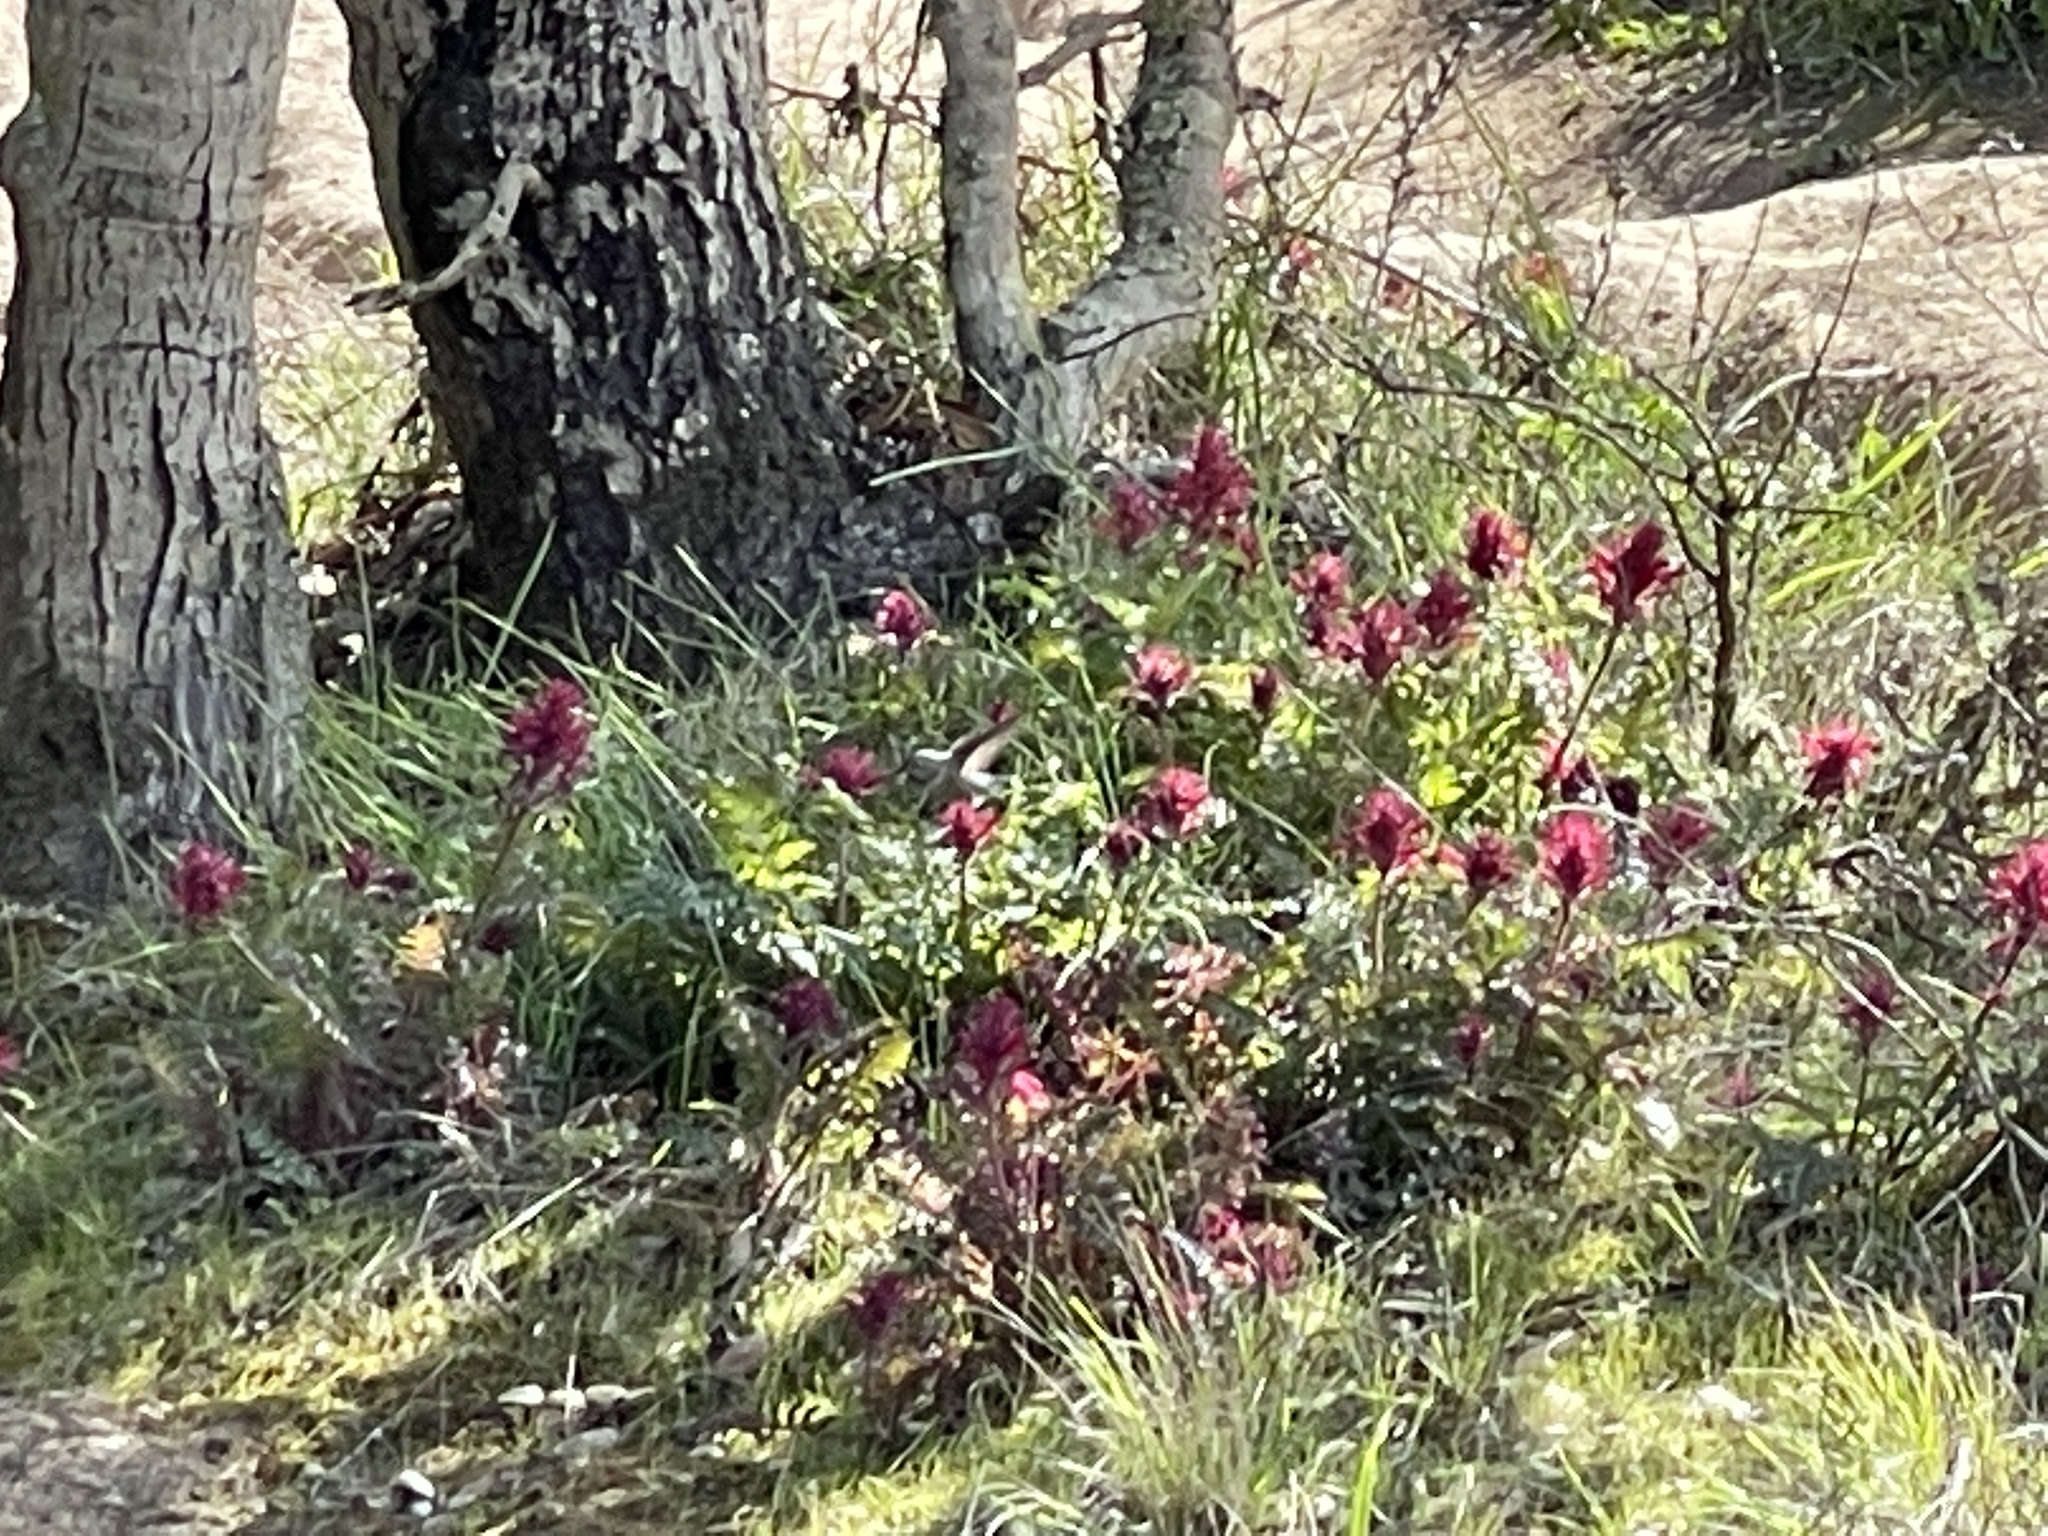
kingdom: Plantae
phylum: Tracheophyta
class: Magnoliopsida
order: Lamiales
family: Orobanchaceae
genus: Pedicularis
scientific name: Pedicularis densiflora
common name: Indian warrior
